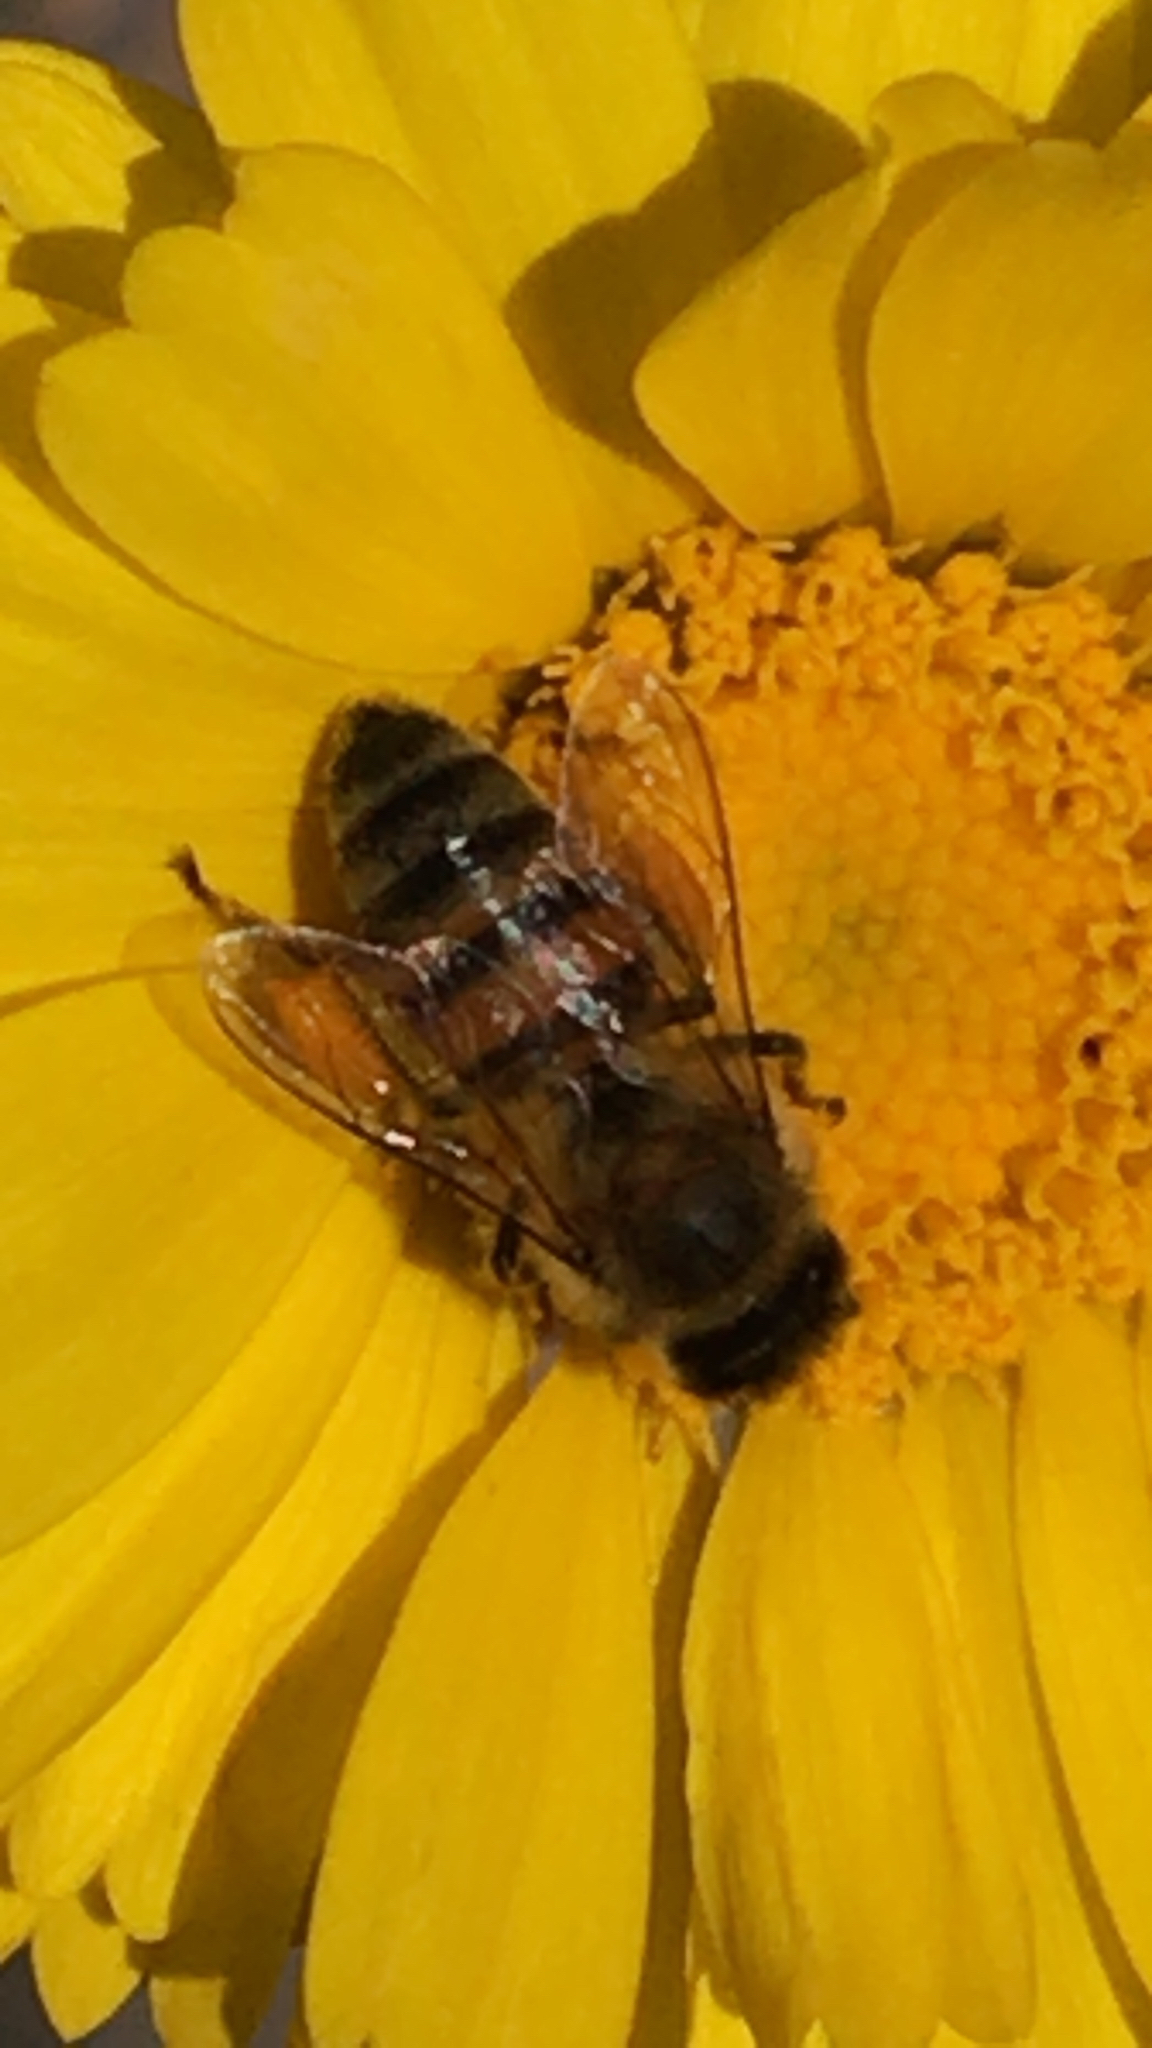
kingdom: Animalia
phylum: Arthropoda
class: Insecta
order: Hymenoptera
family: Apidae
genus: Apis
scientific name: Apis mellifera
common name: Honey bee
